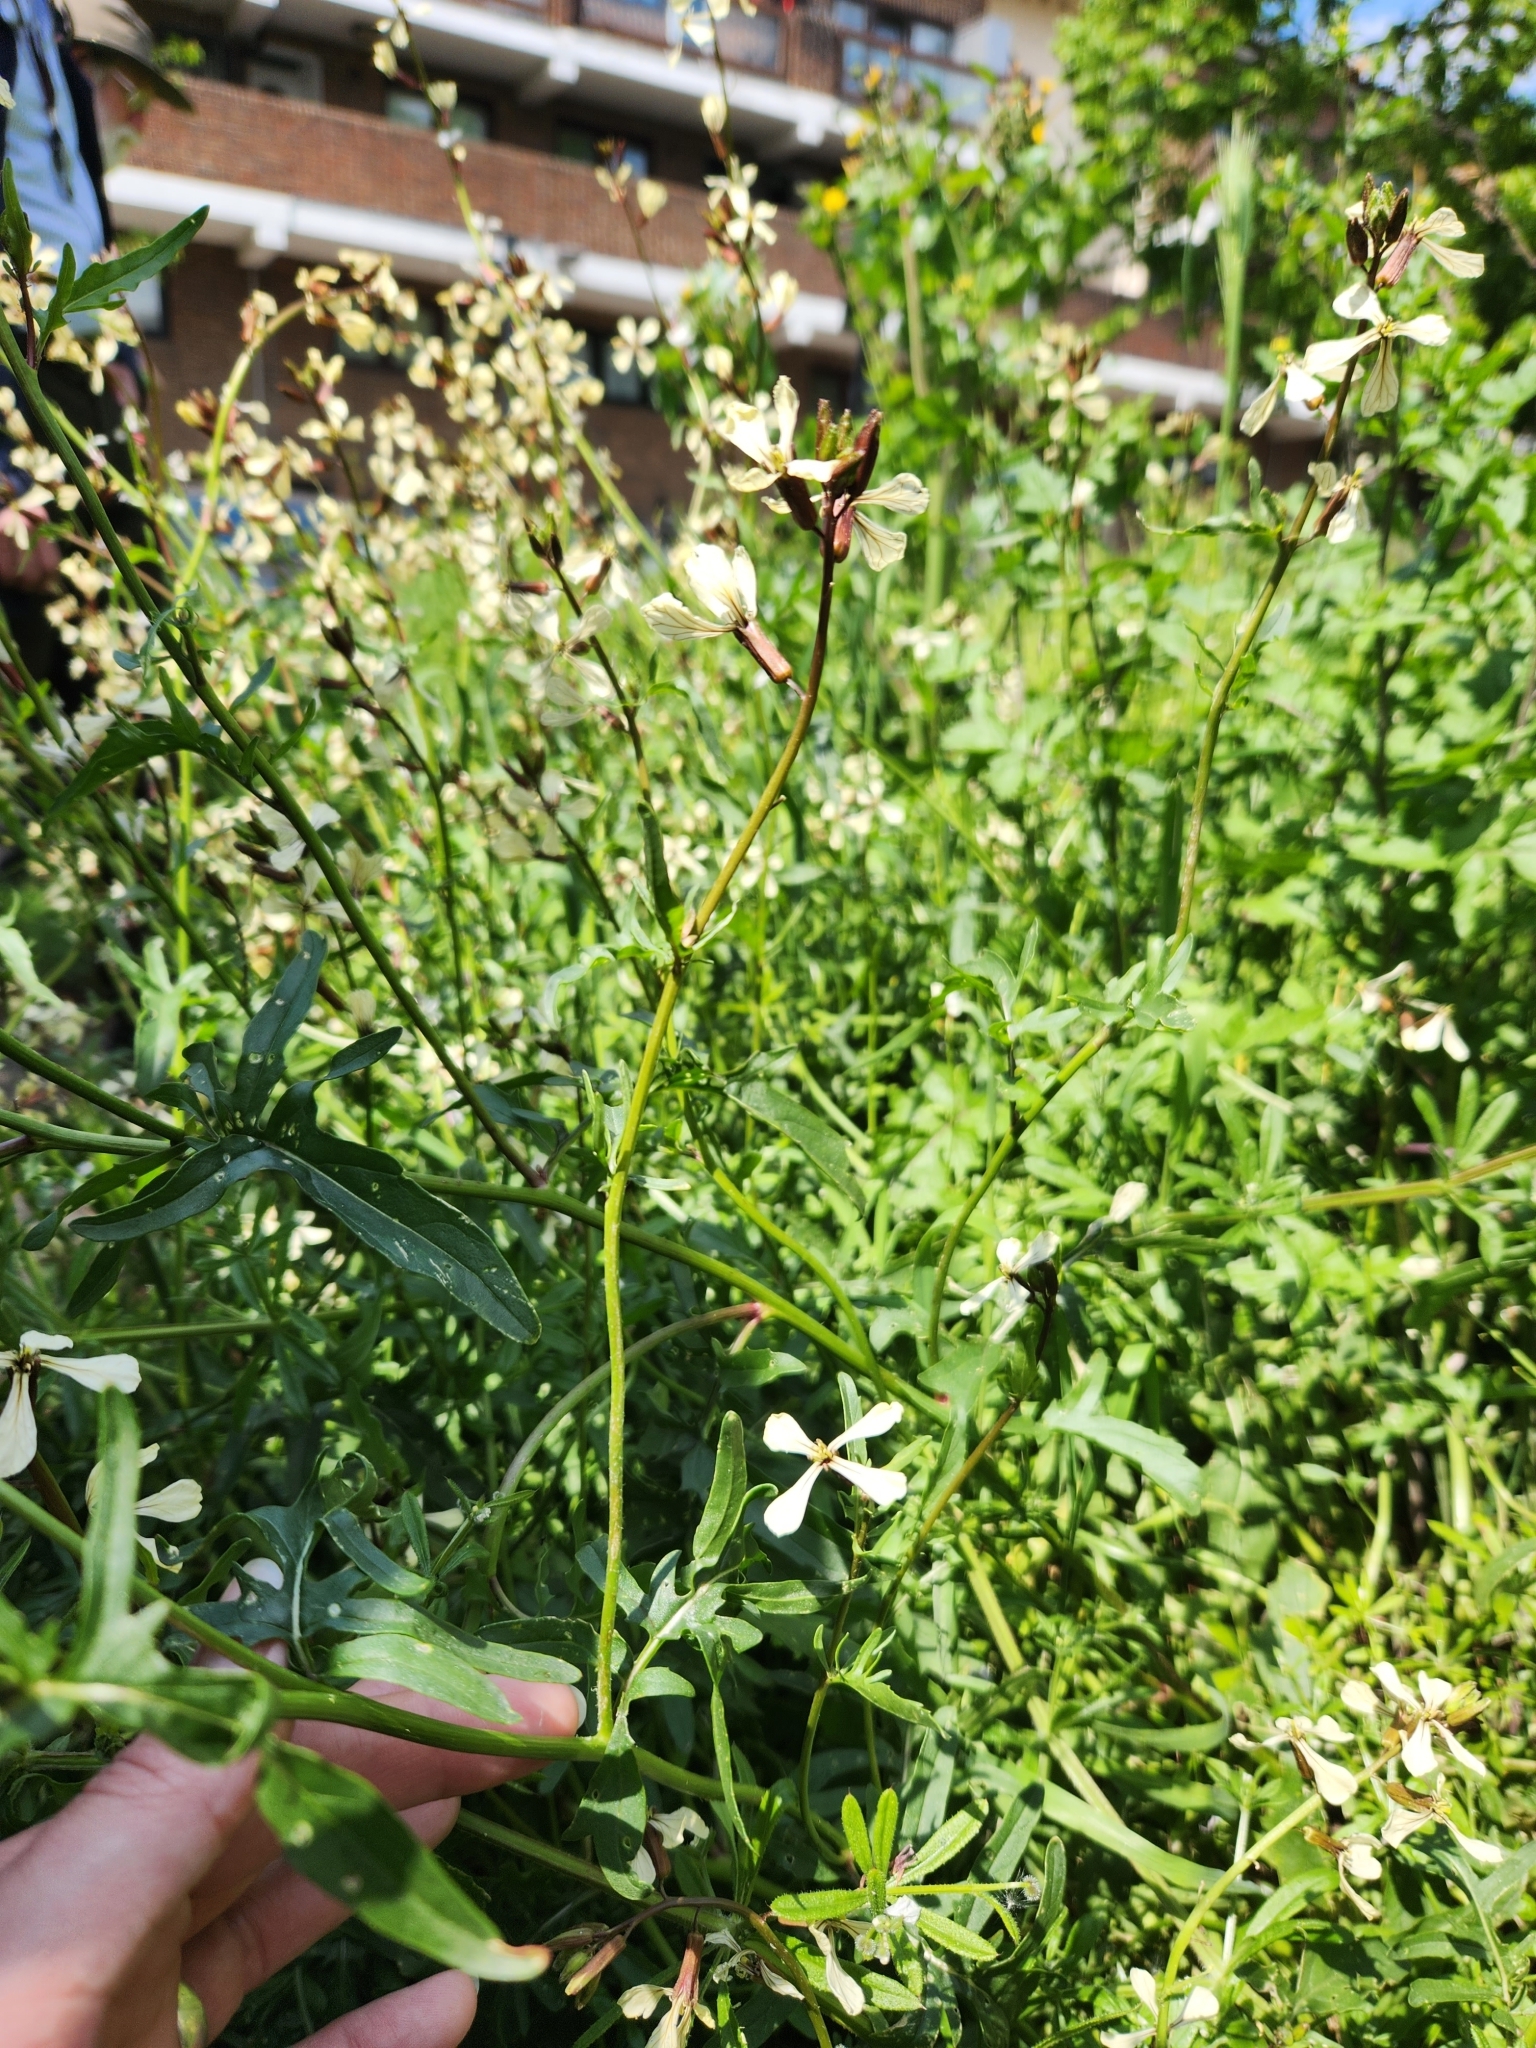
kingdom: Plantae
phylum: Tracheophyta
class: Magnoliopsida
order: Brassicales
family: Brassicaceae
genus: Eruca
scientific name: Eruca vesicaria
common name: Garden rocket
